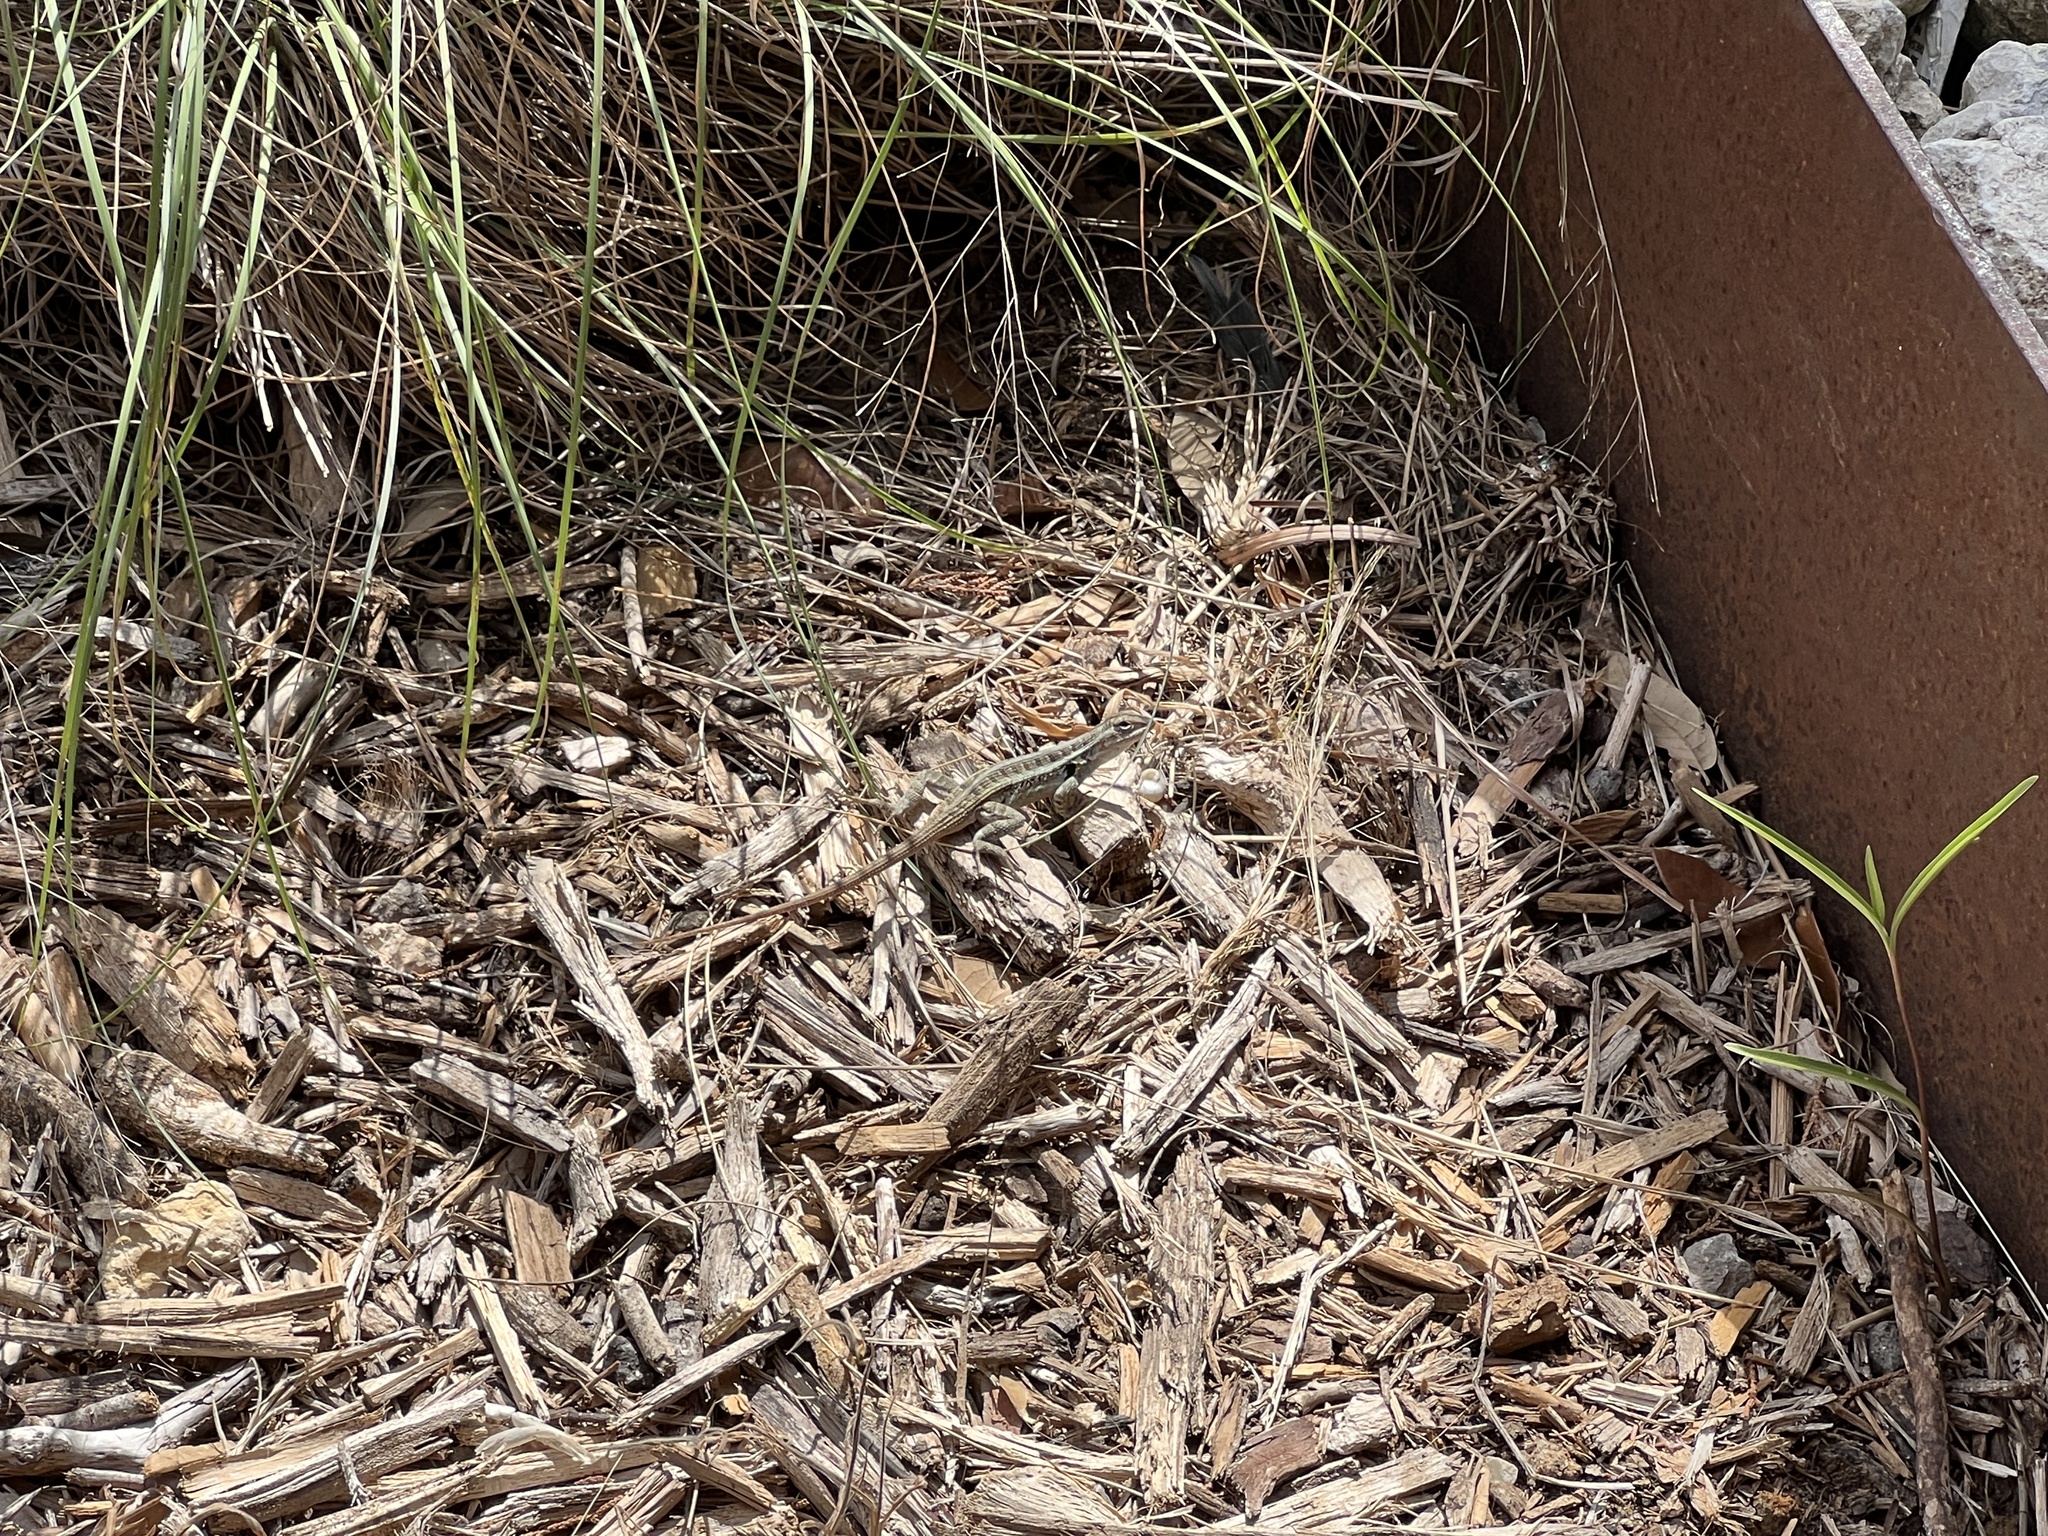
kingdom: Animalia
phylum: Chordata
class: Squamata
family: Phrynosomatidae
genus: Sceloporus
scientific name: Sceloporus variabilis
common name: Rosebelly lizard
